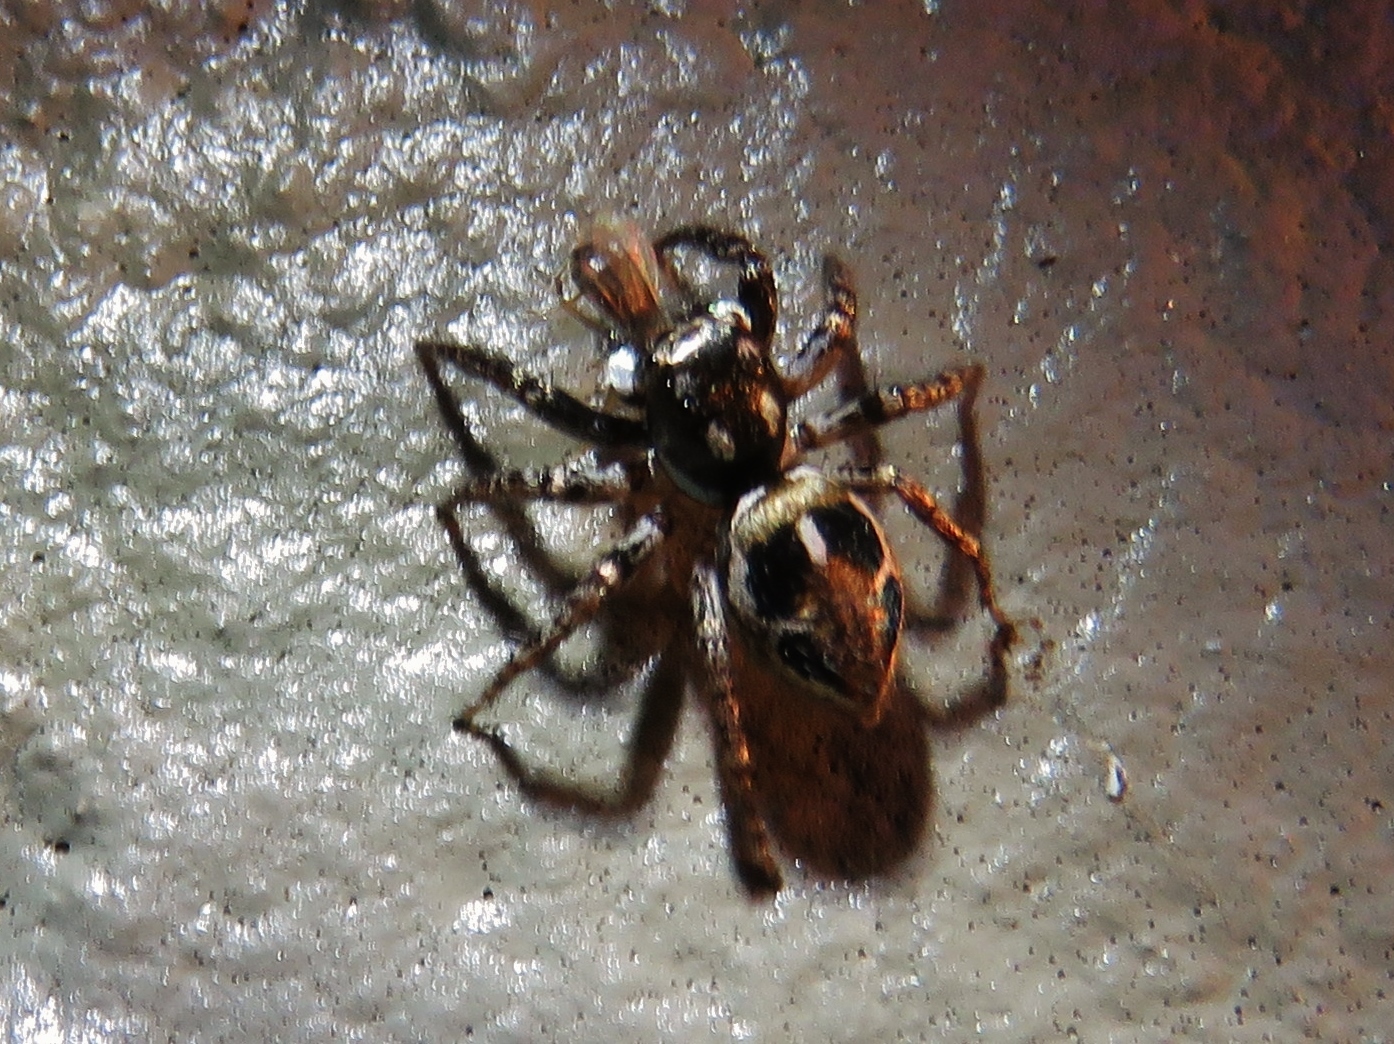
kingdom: Animalia
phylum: Arthropoda
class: Arachnida
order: Araneae
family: Salticidae
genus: Anasaitis
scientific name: Anasaitis canosa
